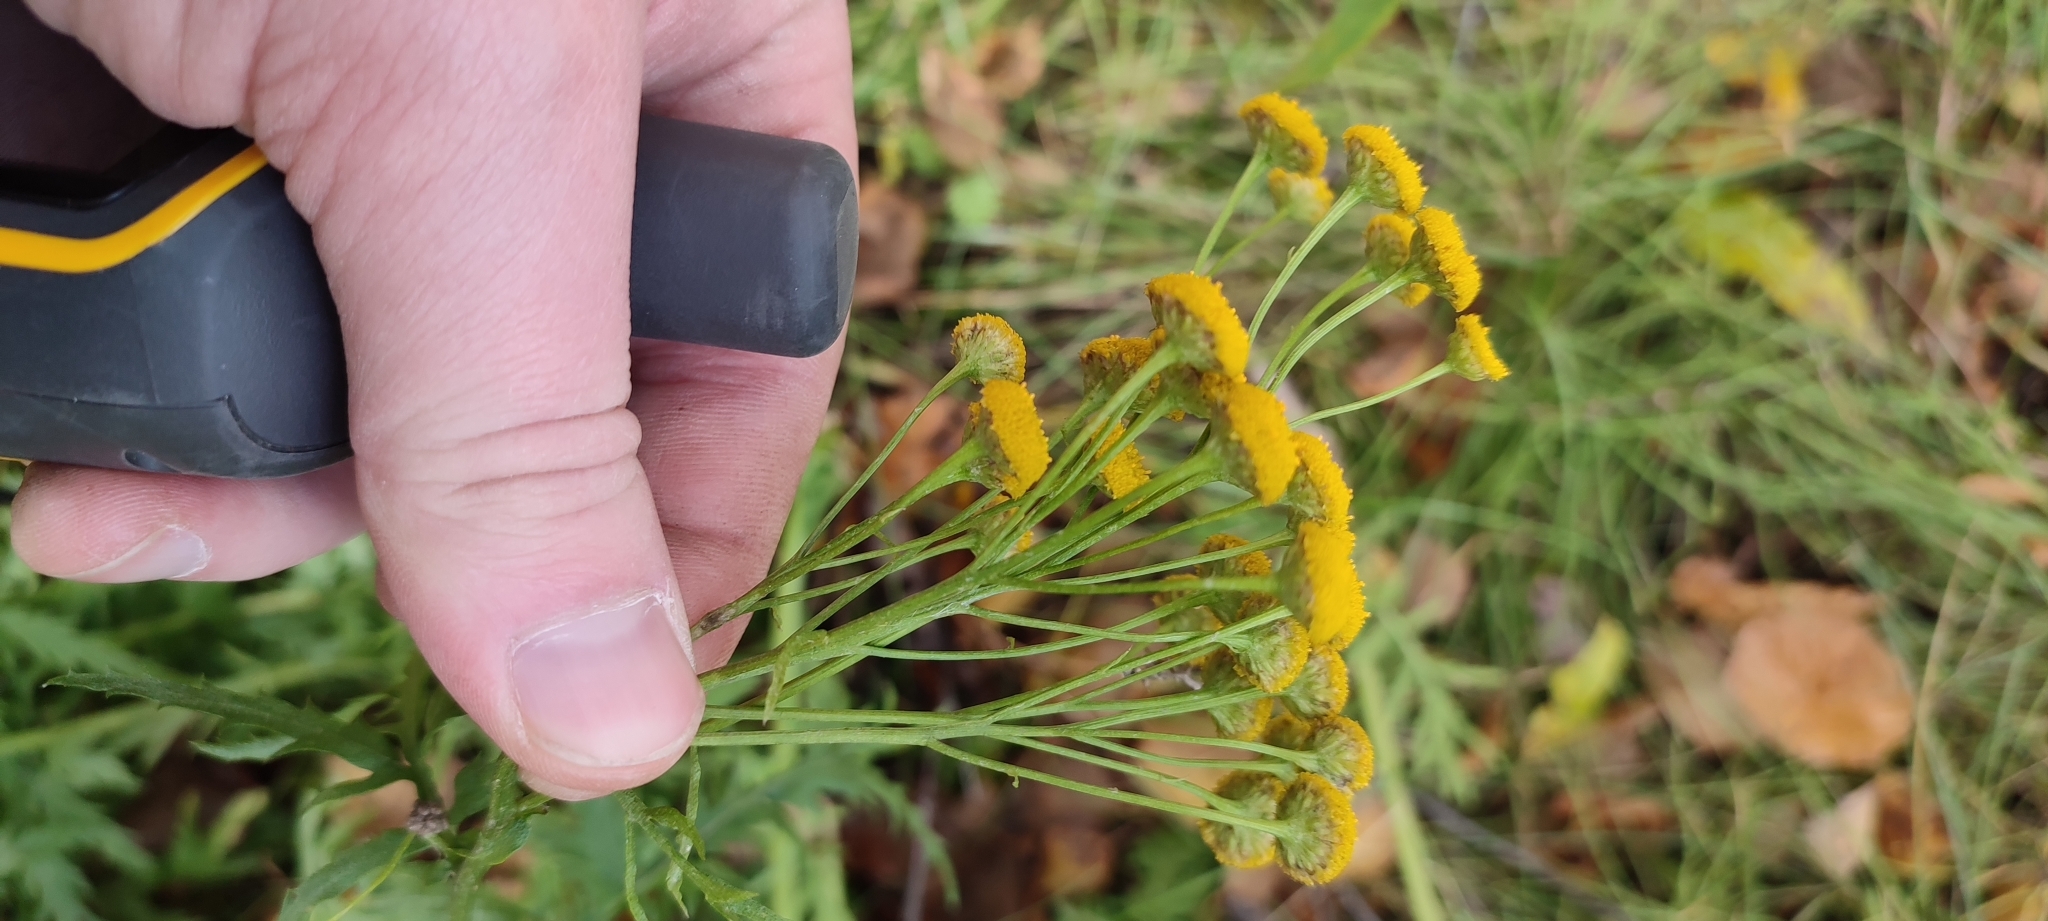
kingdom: Plantae
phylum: Tracheophyta
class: Magnoliopsida
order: Asterales
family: Asteraceae
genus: Tanacetum
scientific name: Tanacetum vulgare
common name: Common tansy
